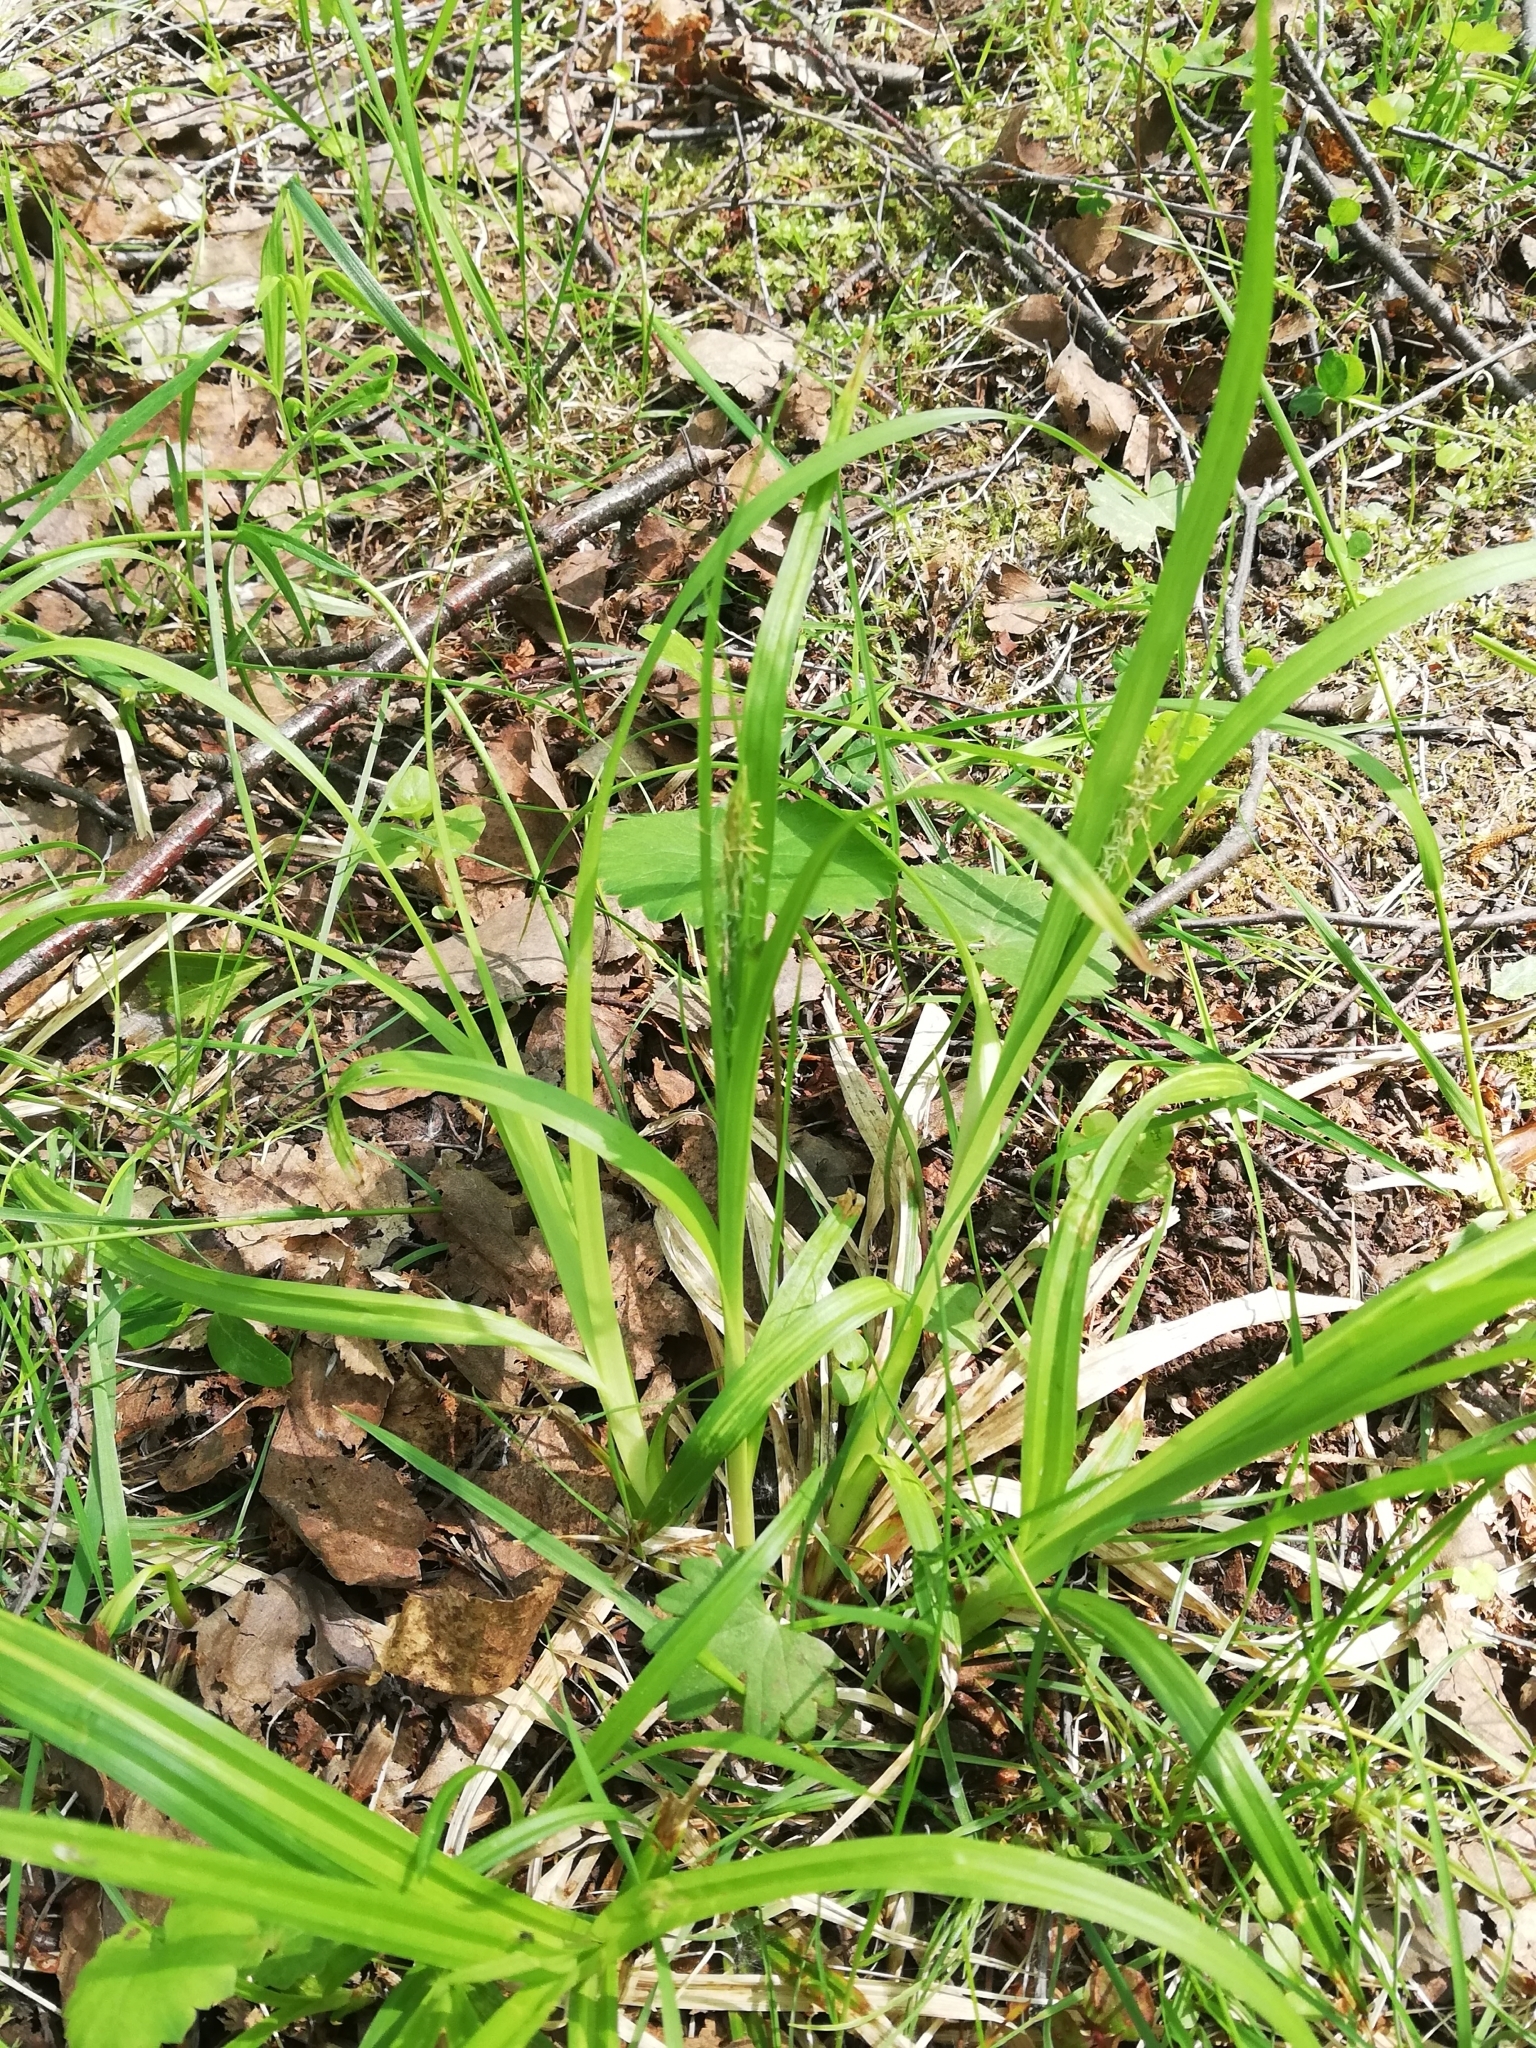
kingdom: Plantae
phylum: Tracheophyta
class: Liliopsida
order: Poales
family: Cyperaceae
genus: Carex
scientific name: Carex sylvatica
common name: Wood-sedge
